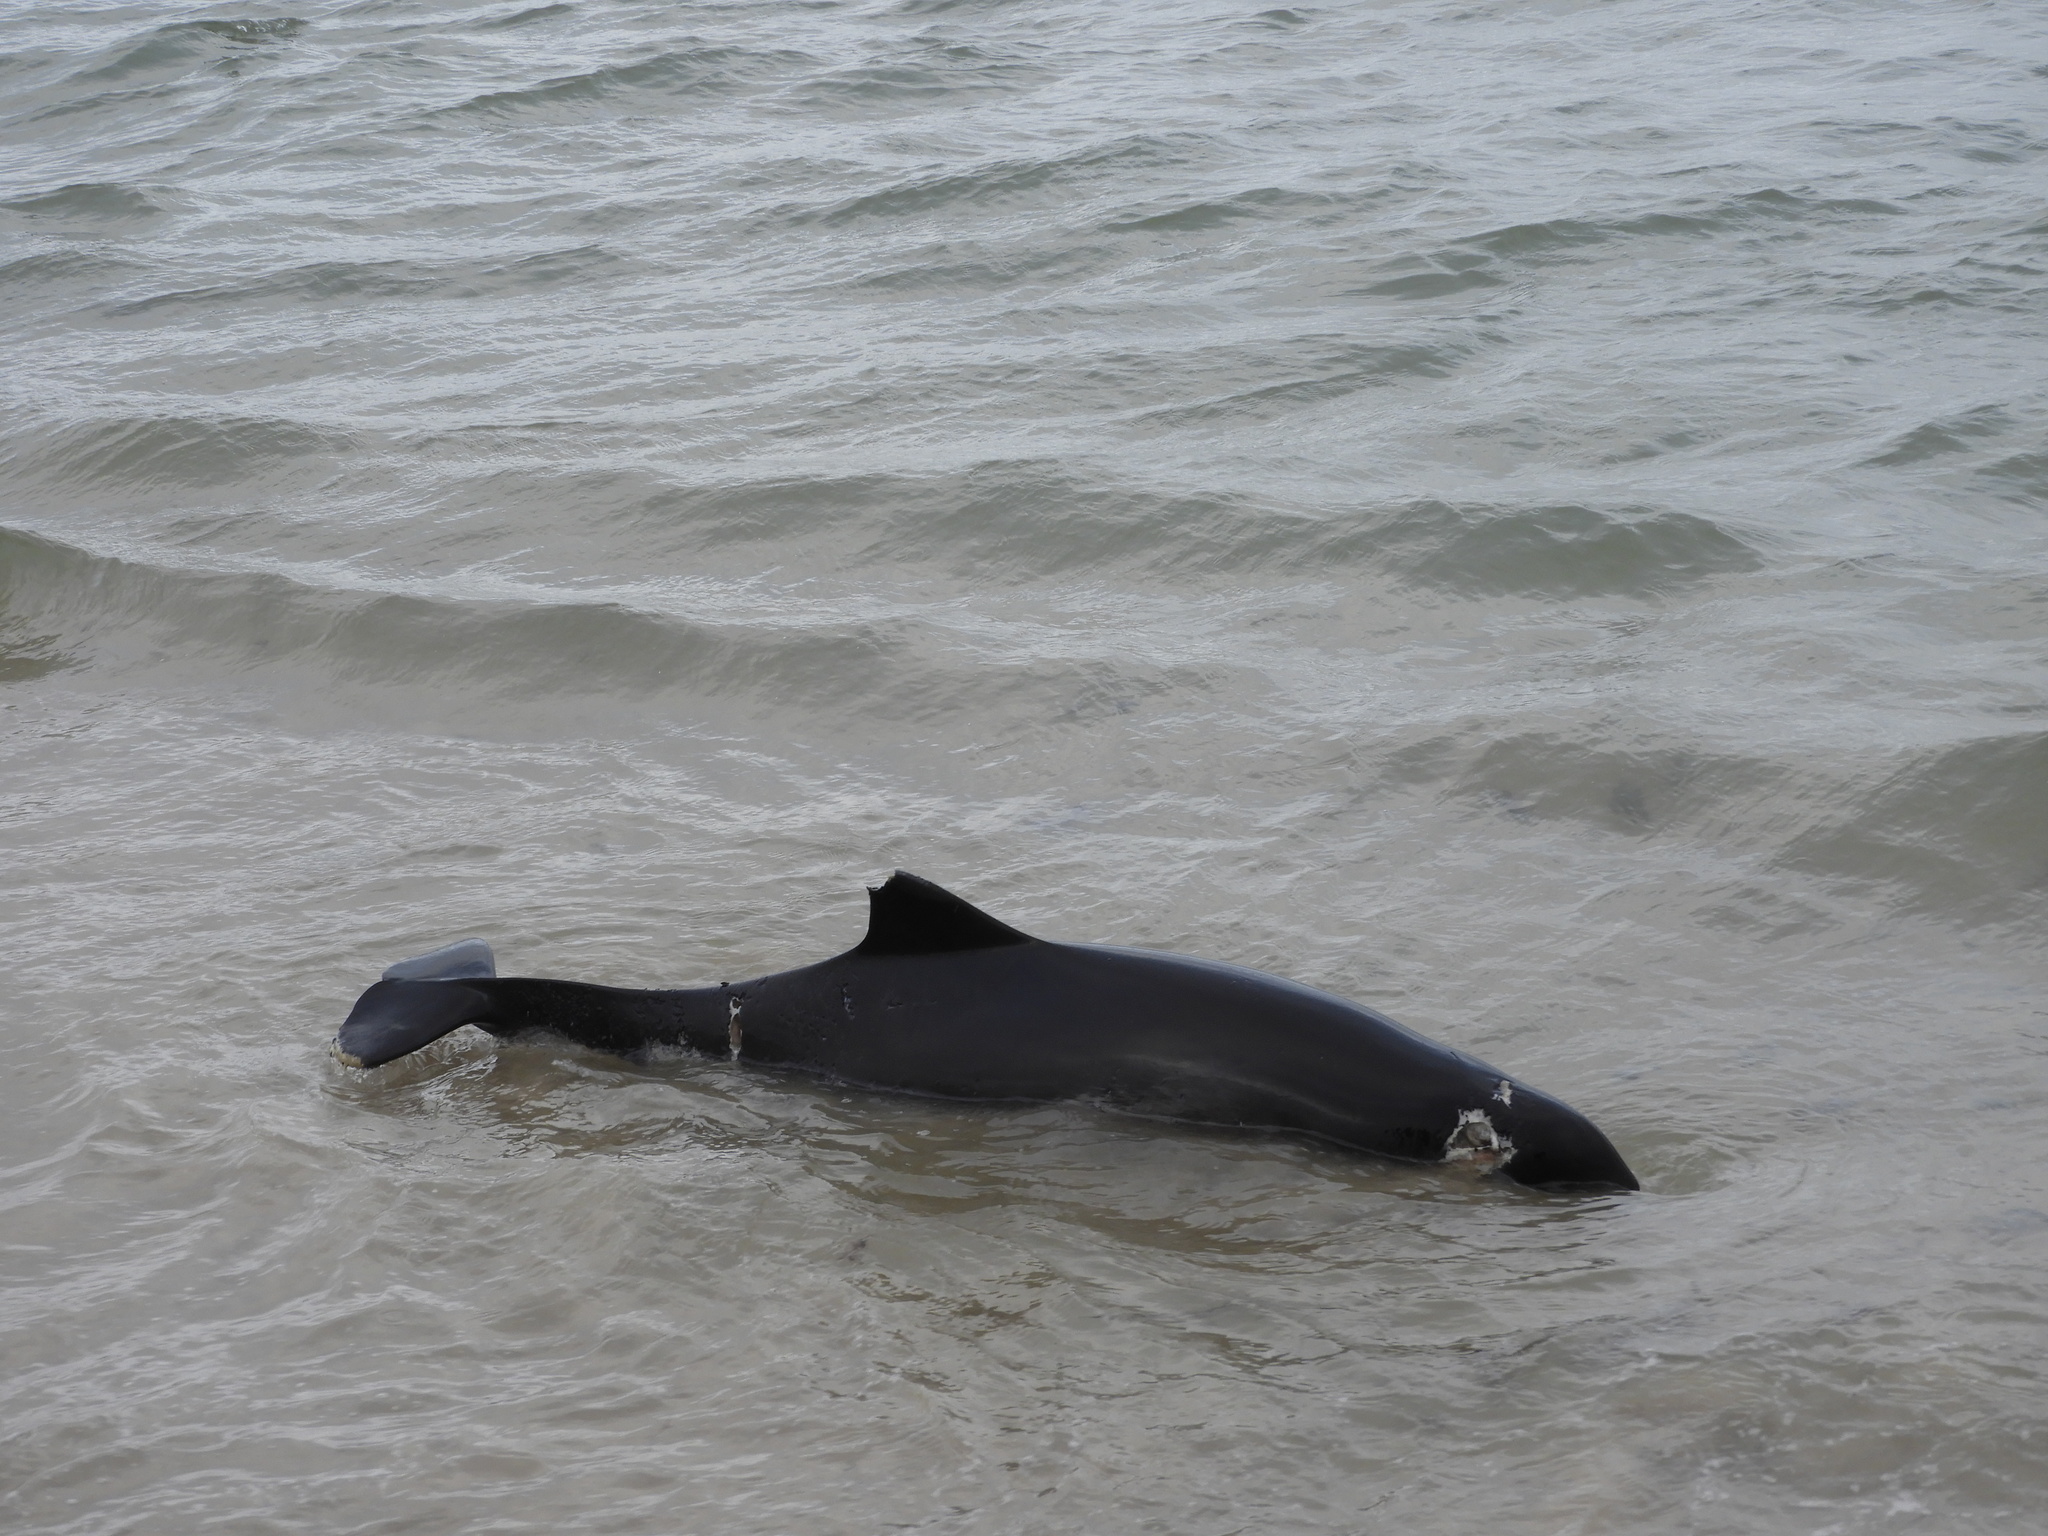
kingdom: Animalia
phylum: Chordata
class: Mammalia
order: Cetacea
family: Phocoenidae
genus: Phocoena
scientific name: Phocoena phocoena
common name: Harbor porpoise
